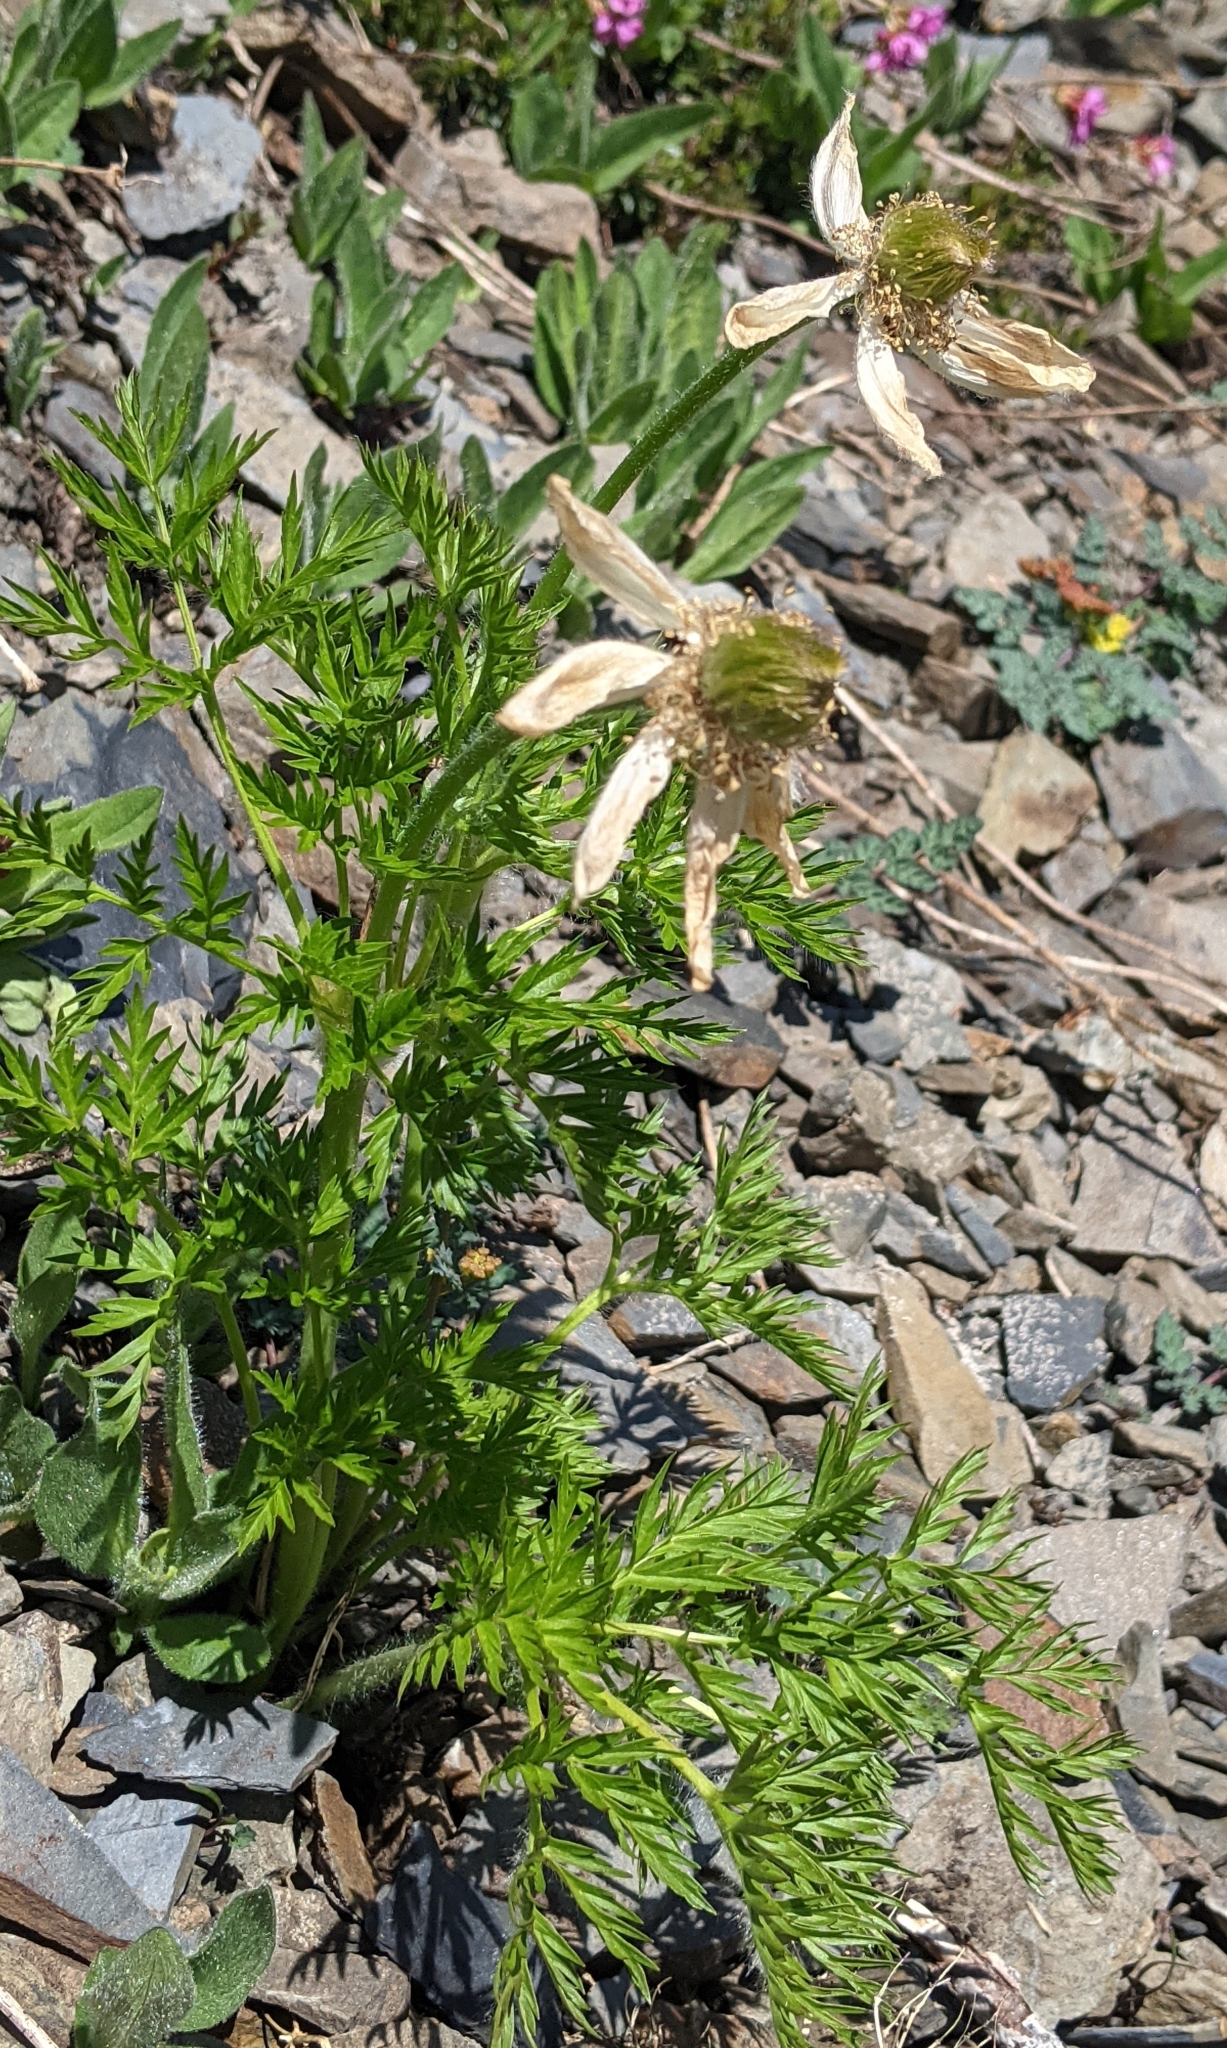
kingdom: Plantae
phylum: Tracheophyta
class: Magnoliopsida
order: Ranunculales
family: Ranunculaceae
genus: Pulsatilla
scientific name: Pulsatilla occidentalis
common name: Mountain pasqueflower
